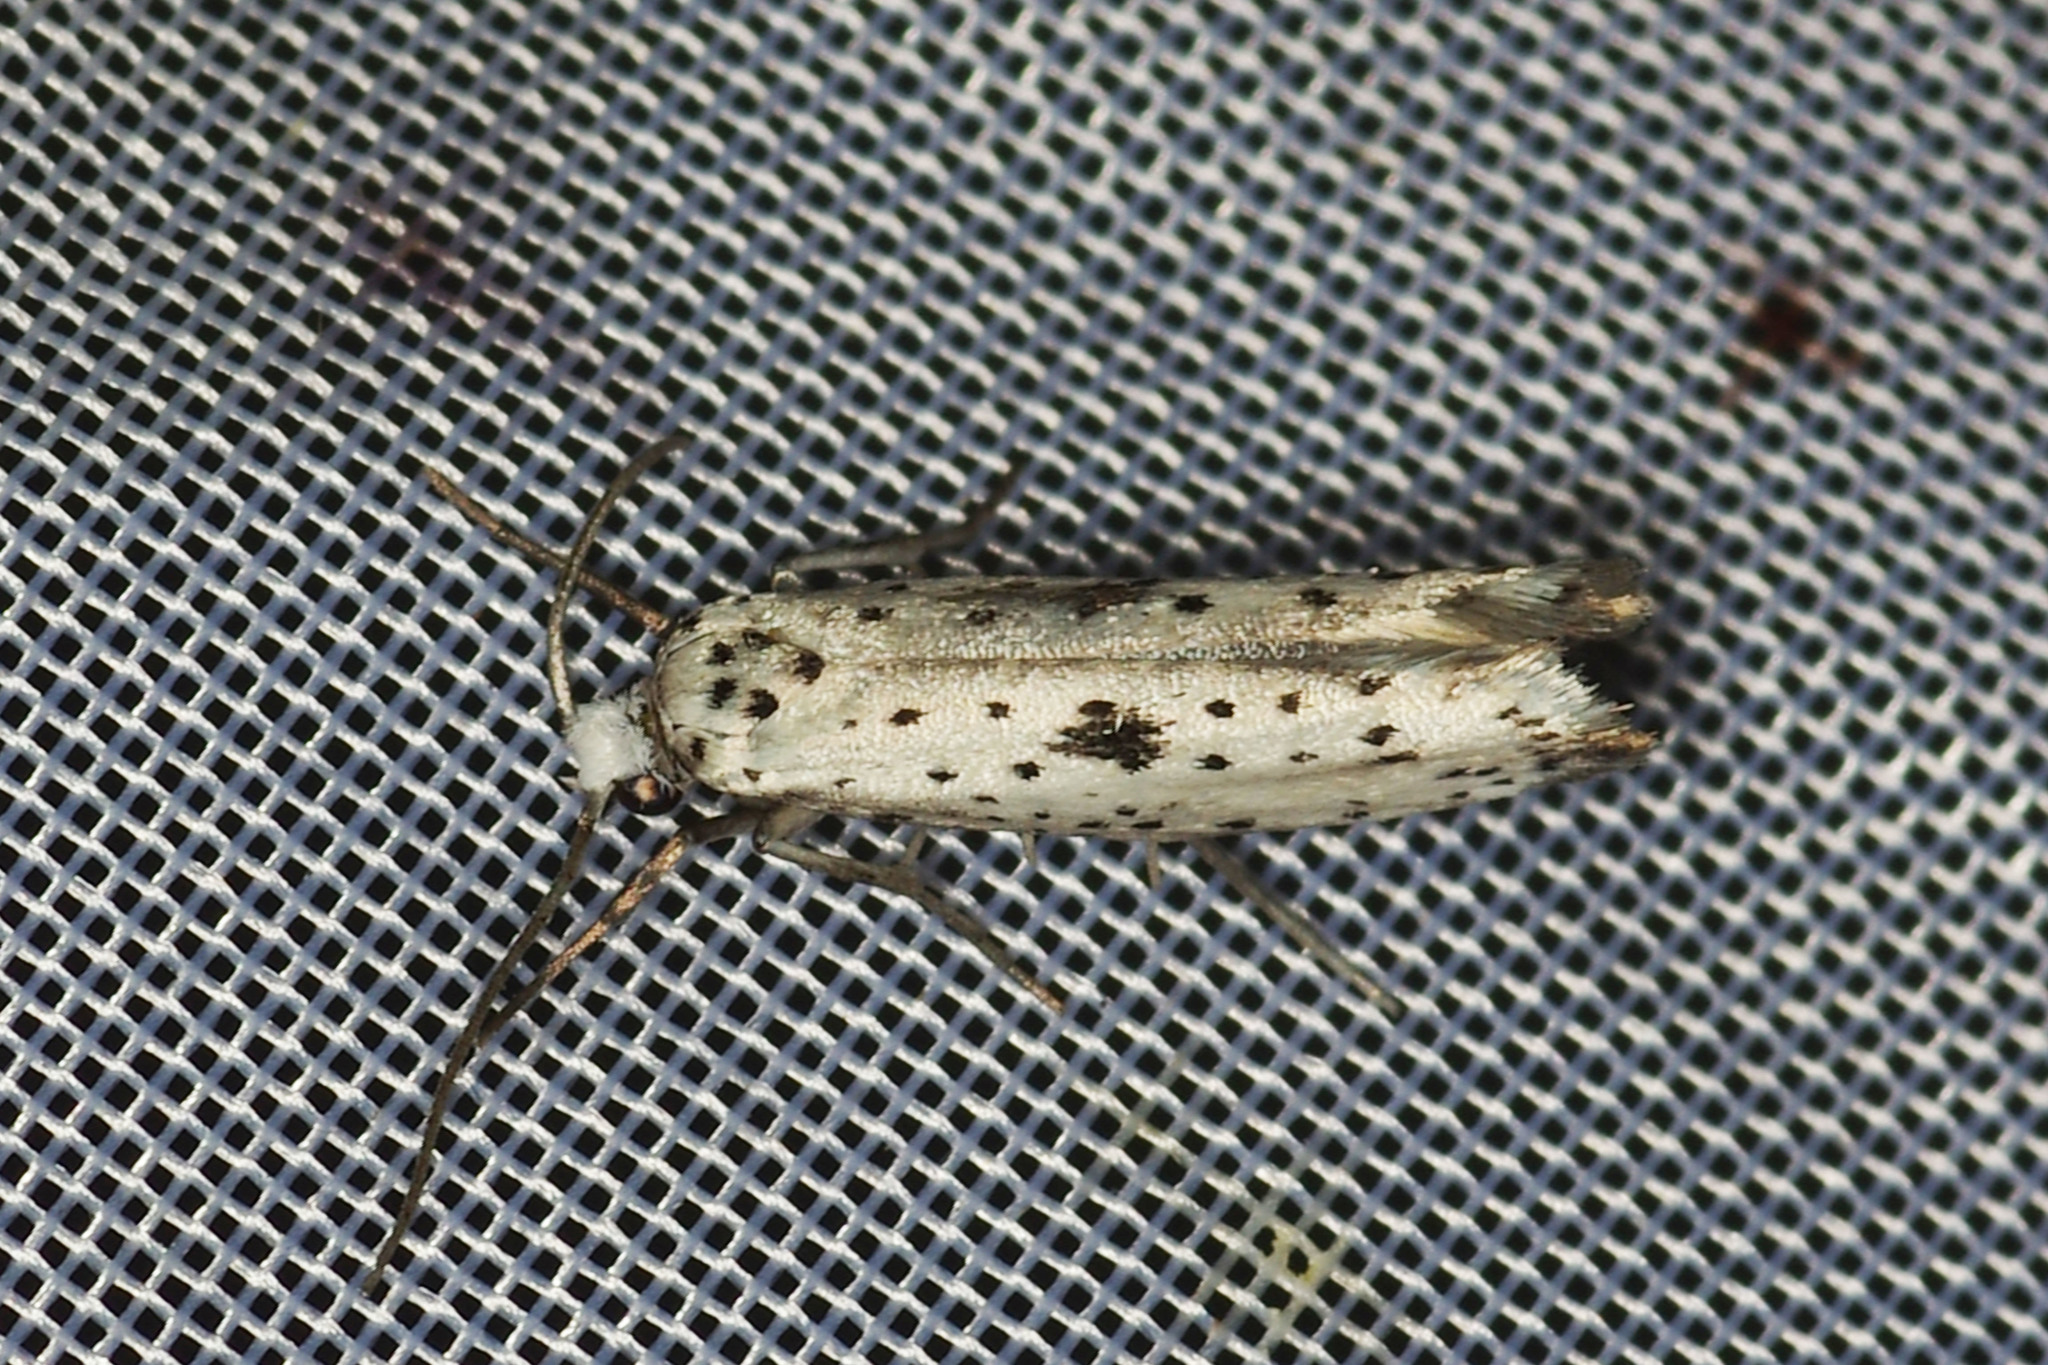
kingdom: Animalia
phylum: Arthropoda
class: Insecta
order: Lepidoptera
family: Yponomeutidae
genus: Yponomeuta
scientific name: Yponomeuta plumbella
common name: Black-tipped ermine
